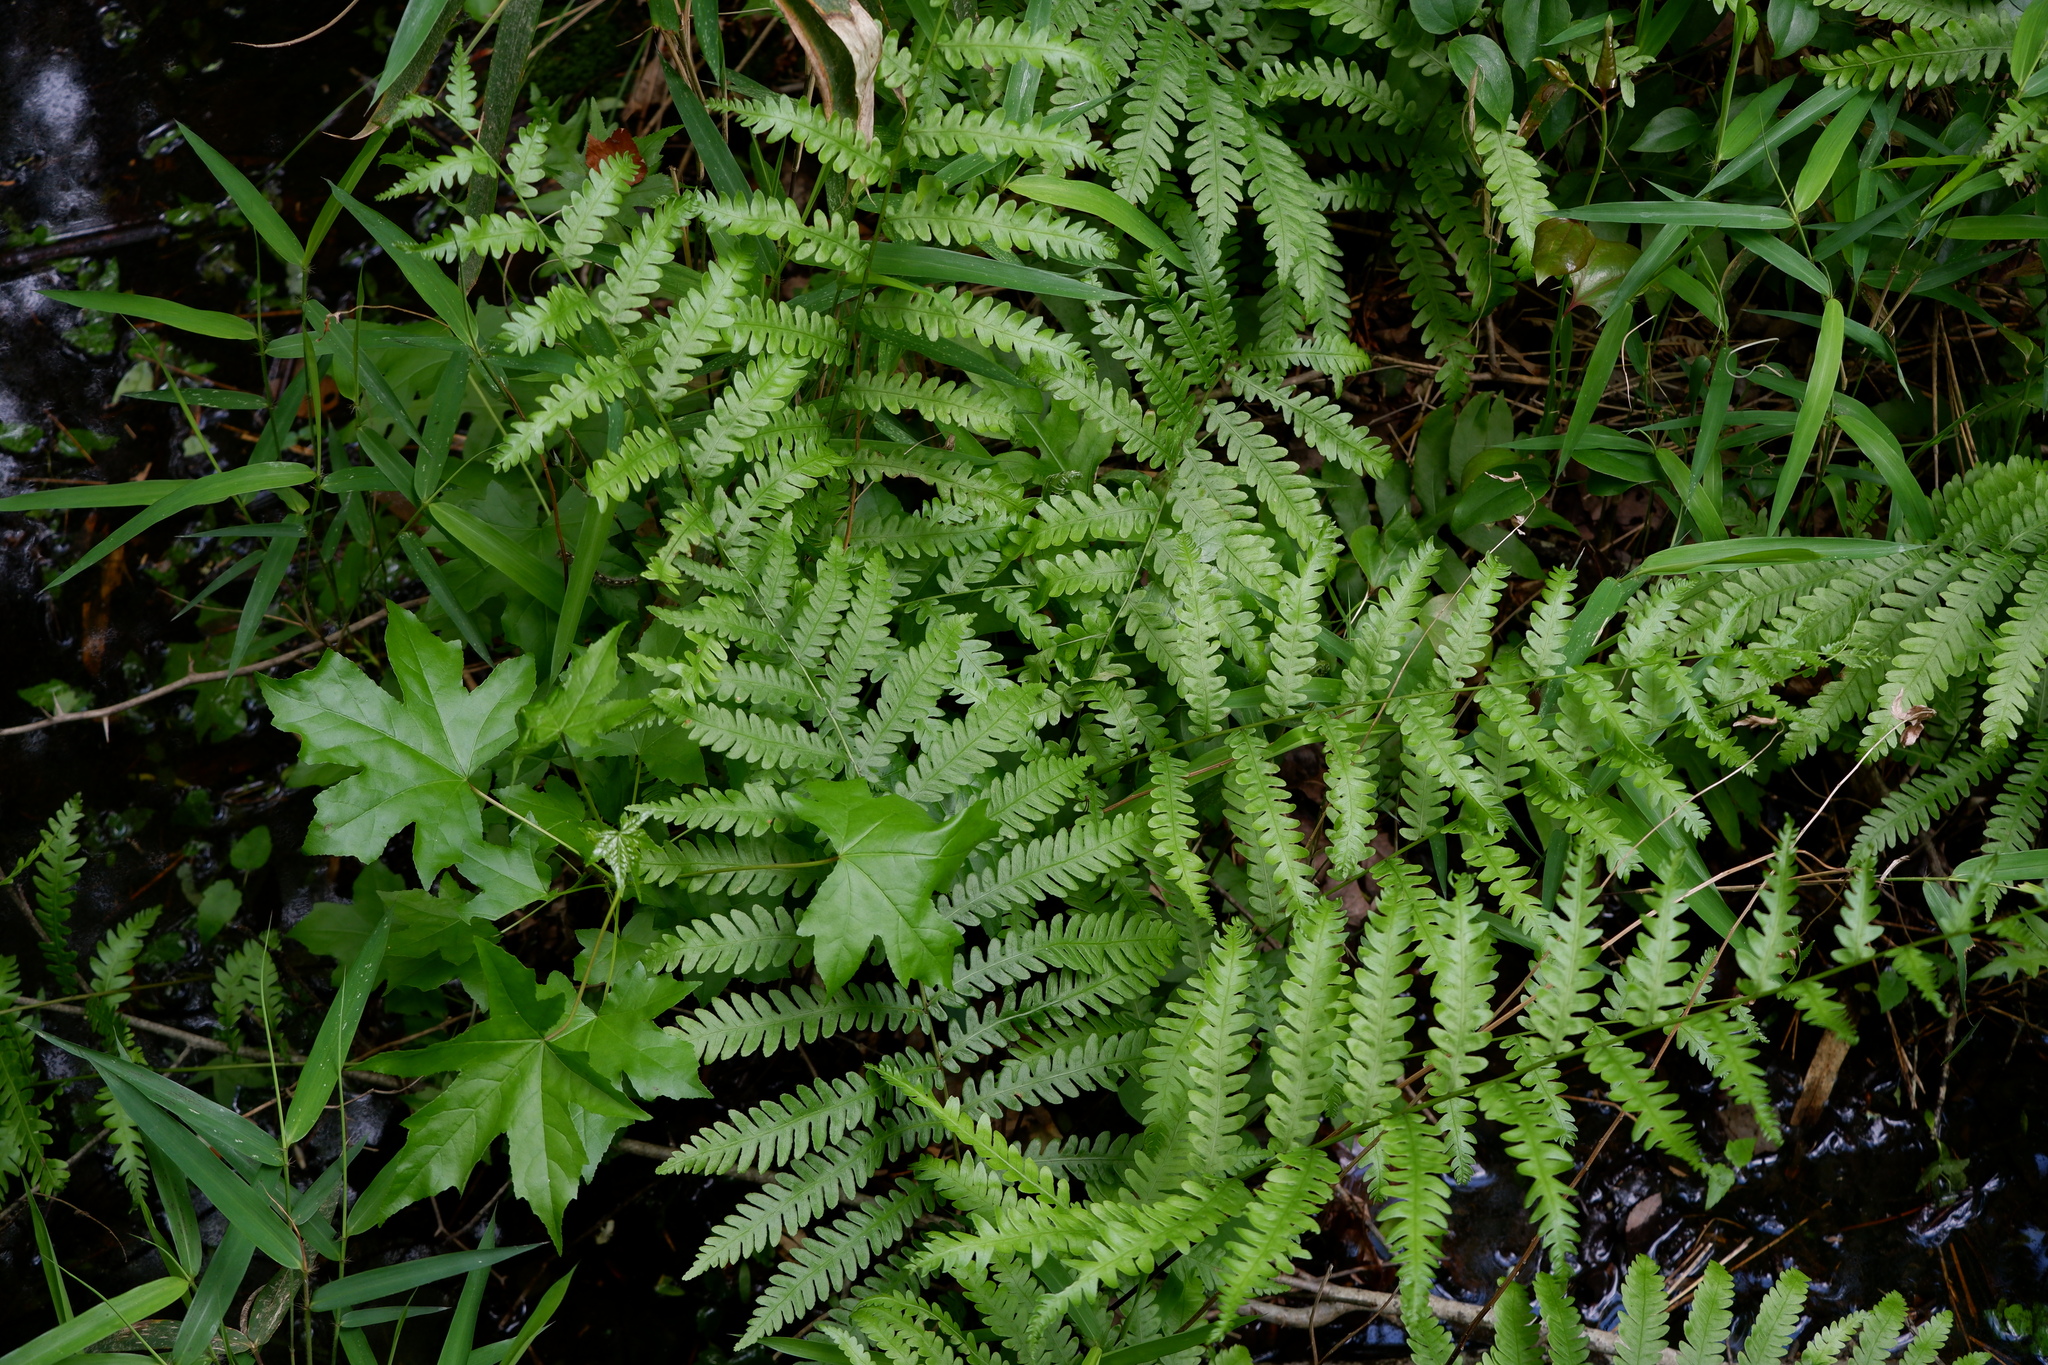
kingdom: Plantae
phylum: Tracheophyta
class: Polypodiopsida
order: Polypodiales
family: Blechnaceae
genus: Anchistea
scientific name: Anchistea virginica
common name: Virginia chain fern
